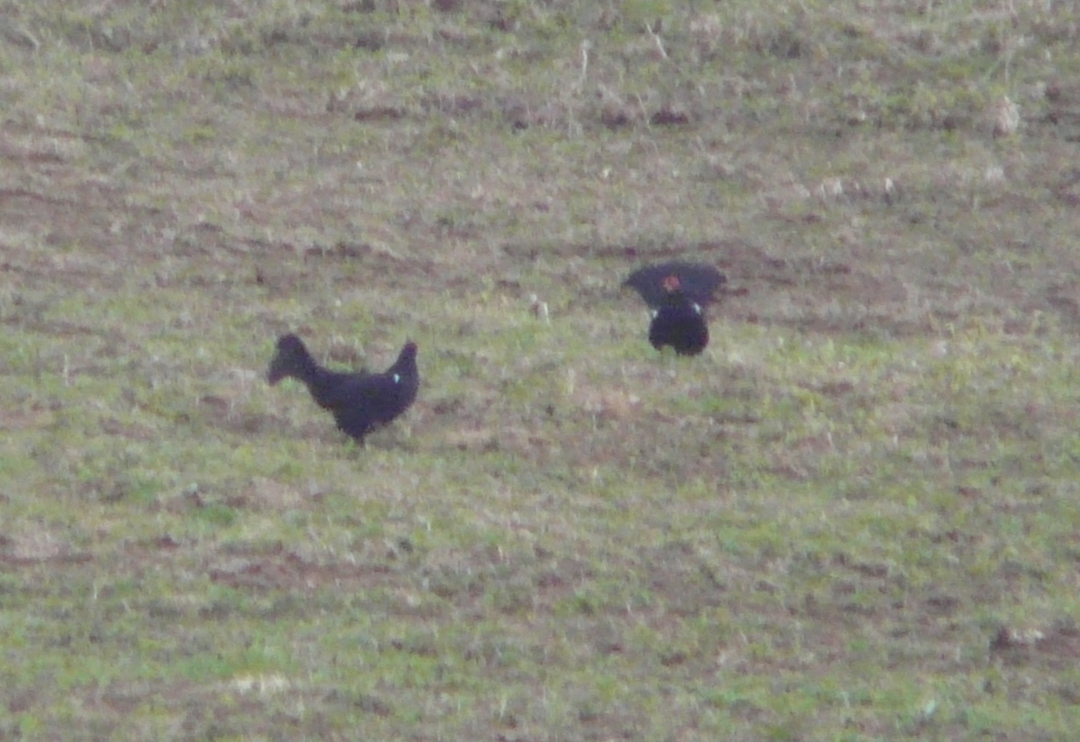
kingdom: Animalia
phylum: Chordata
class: Aves
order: Galliformes
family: Phasianidae
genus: Lyrurus
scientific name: Lyrurus mlokosiewiczi
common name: Caucasian grouse
